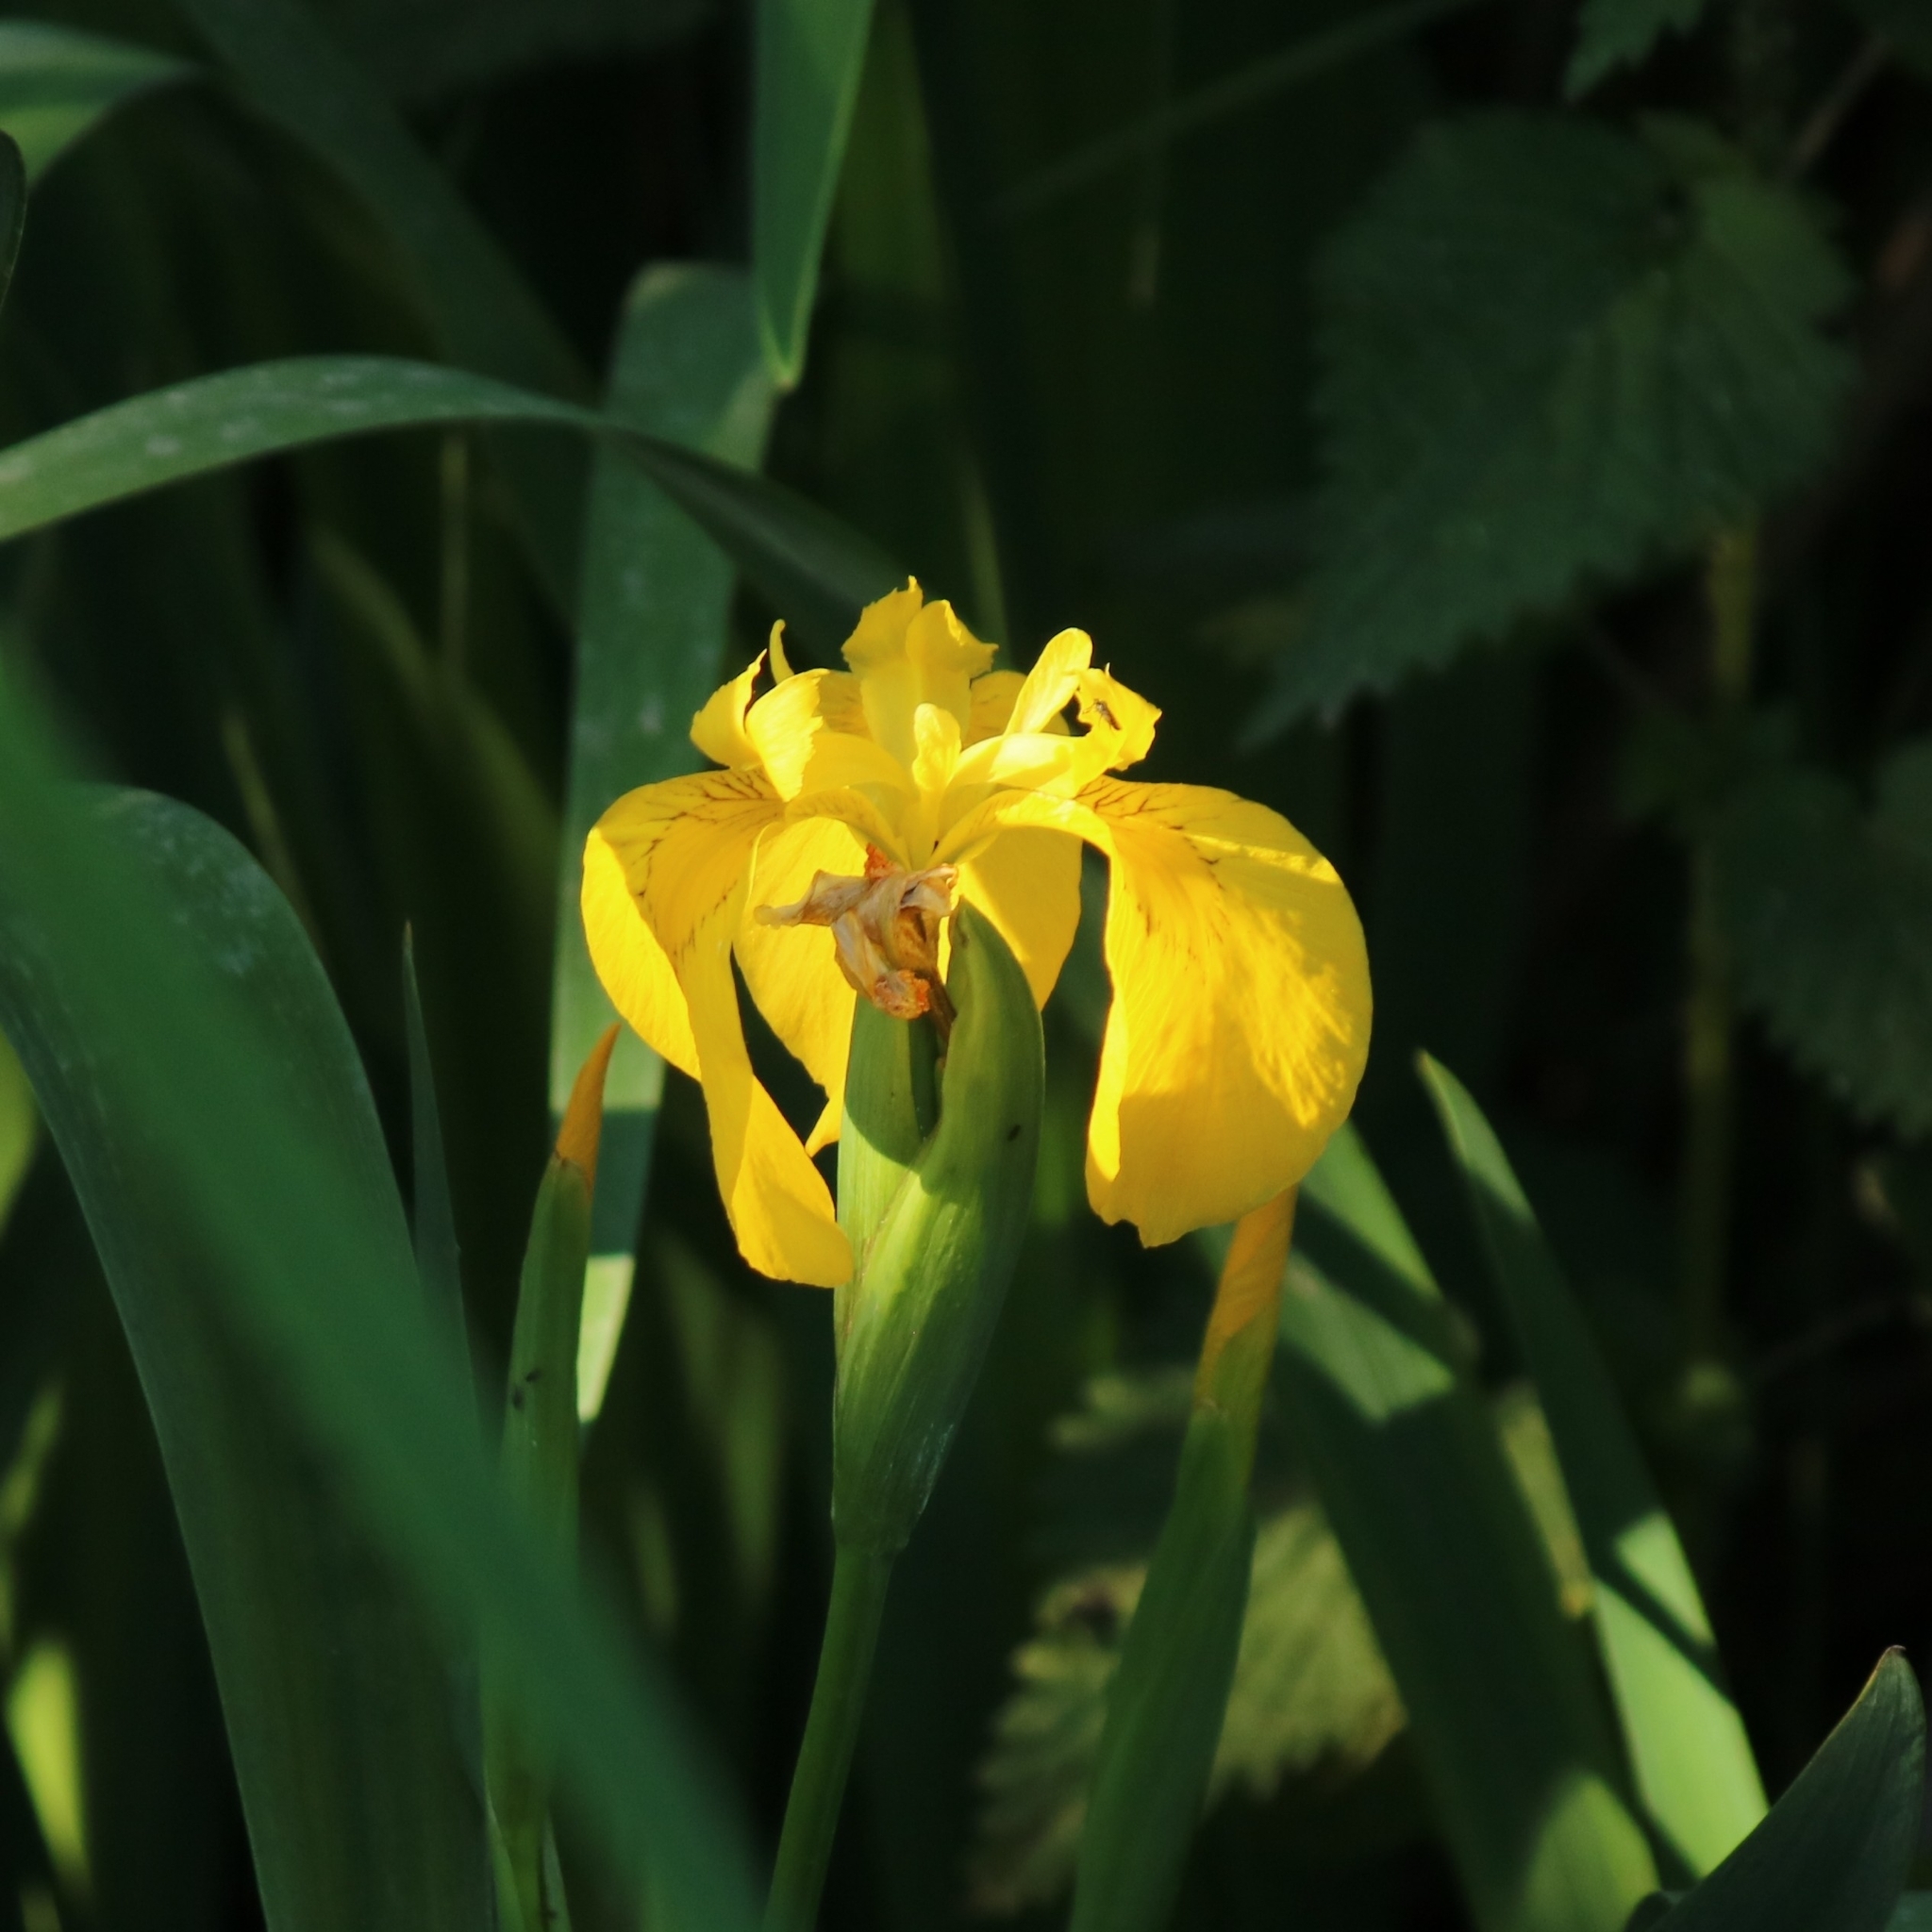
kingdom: Plantae
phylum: Tracheophyta
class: Liliopsida
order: Asparagales
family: Iridaceae
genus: Iris
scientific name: Iris pseudacorus
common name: Yellow flag
